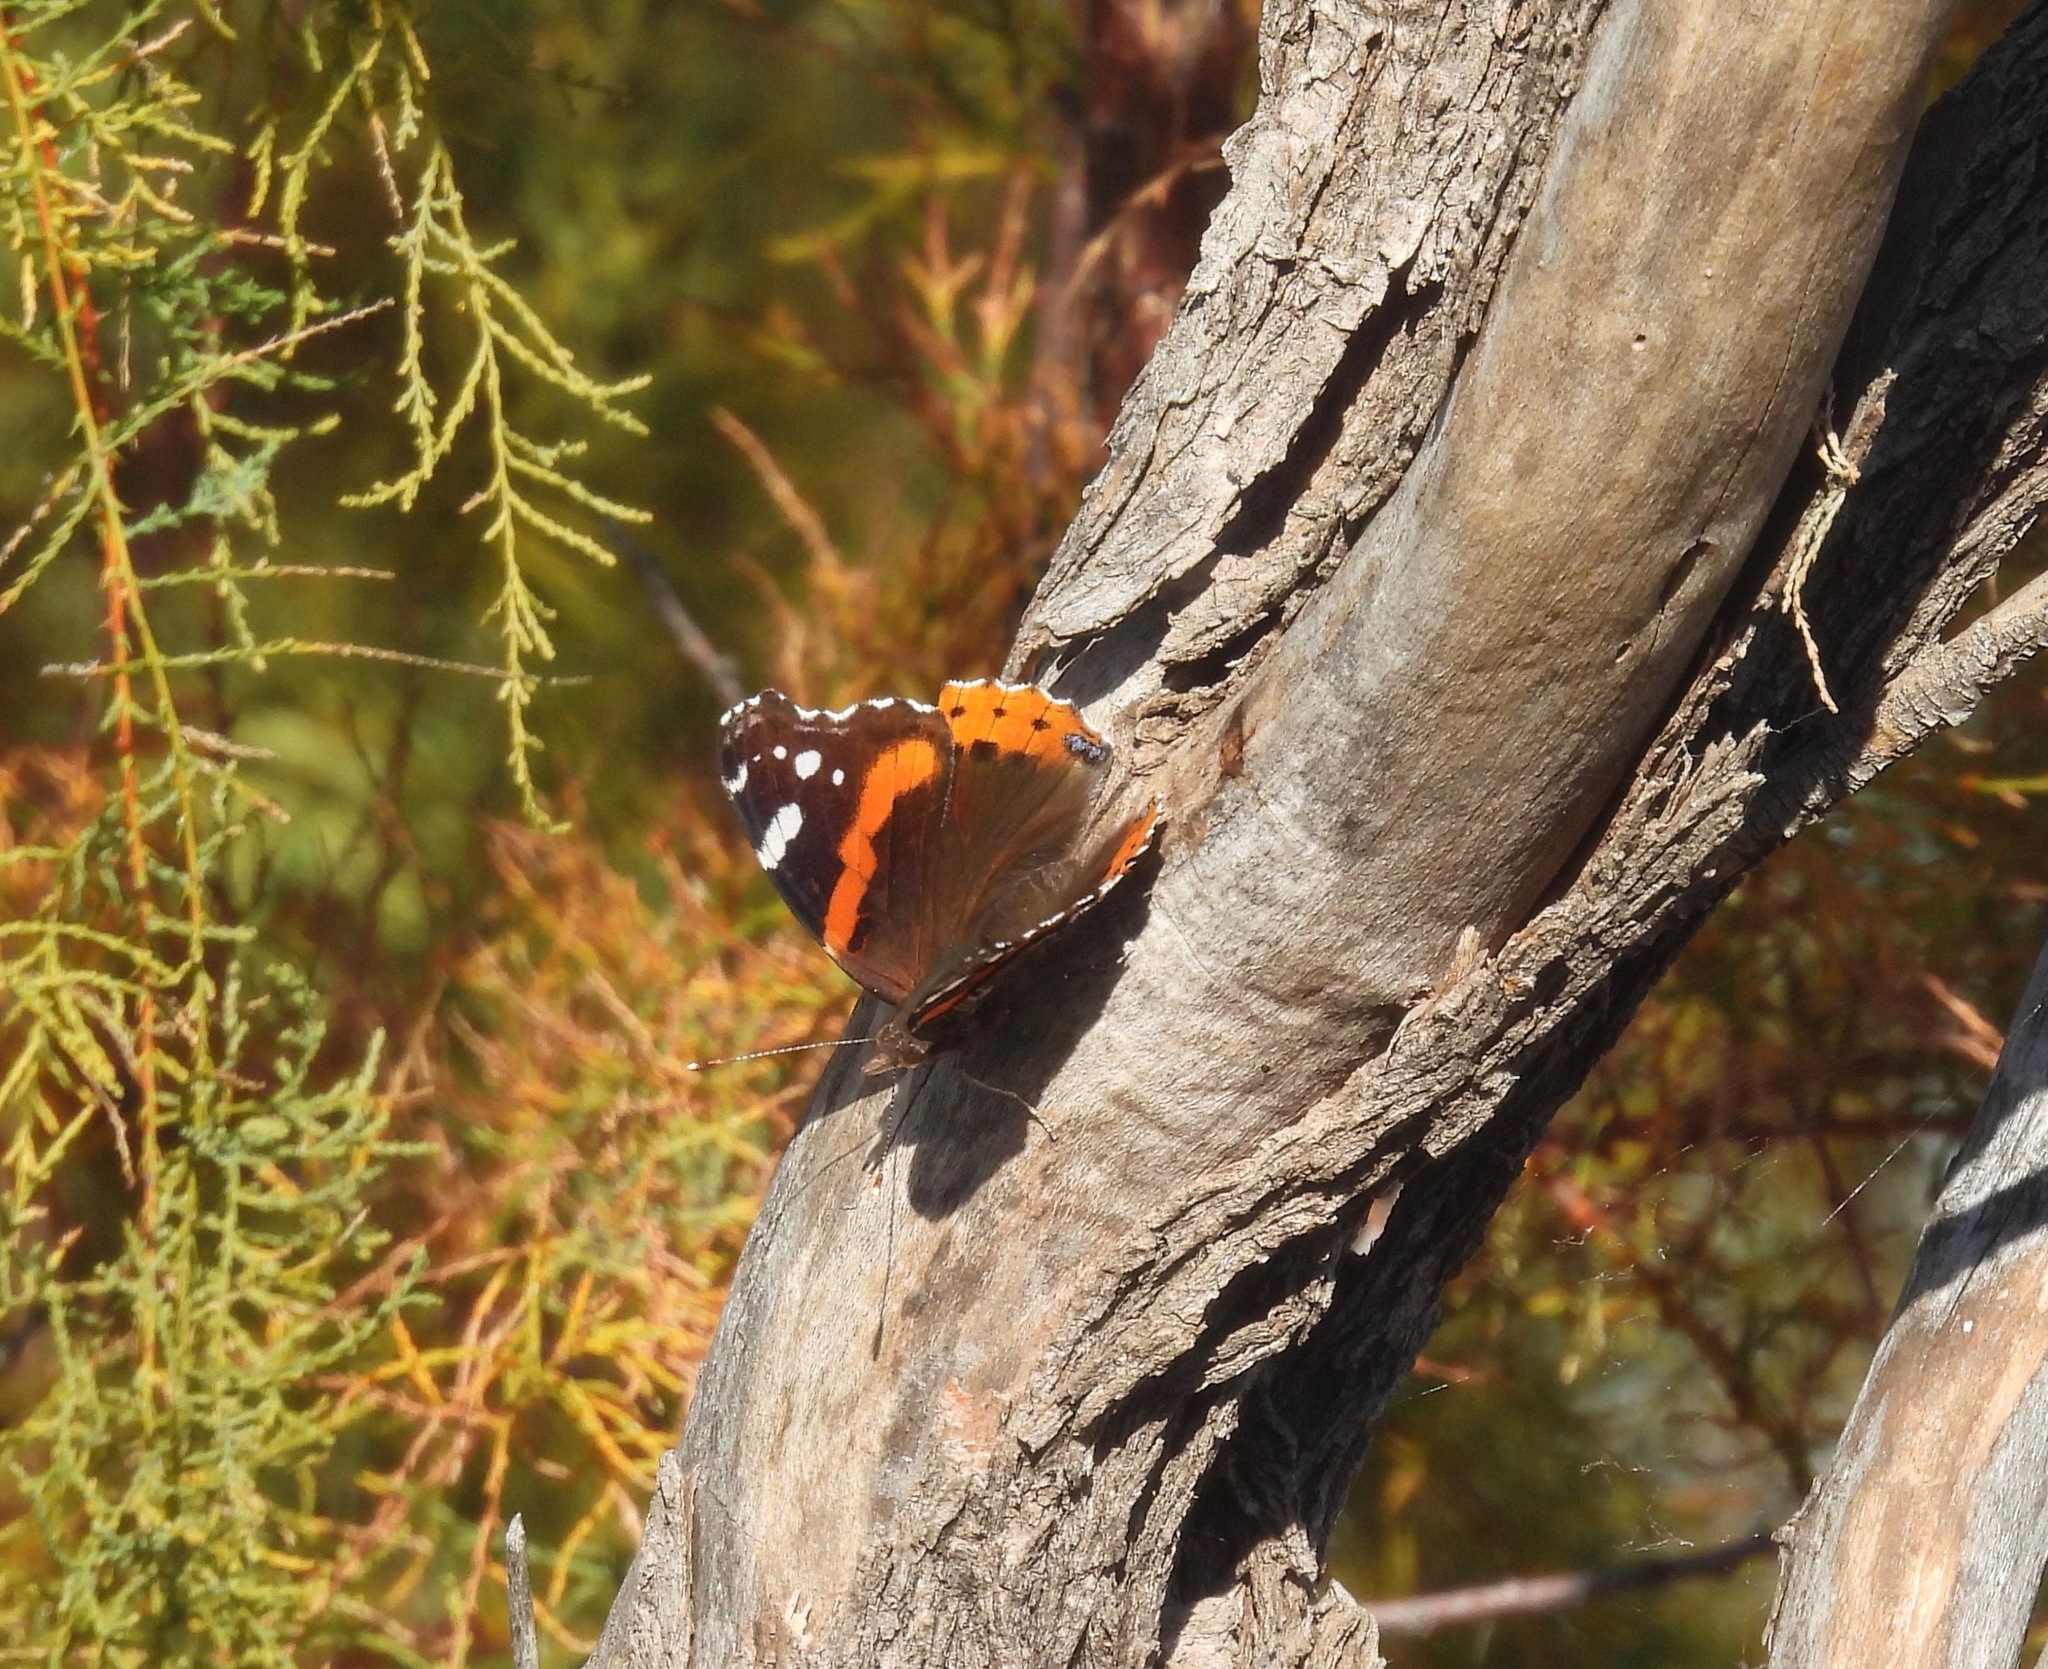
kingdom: Animalia
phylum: Arthropoda
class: Insecta
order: Lepidoptera
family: Nymphalidae
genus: Vanessa
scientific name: Vanessa atalanta
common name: Red admiral
